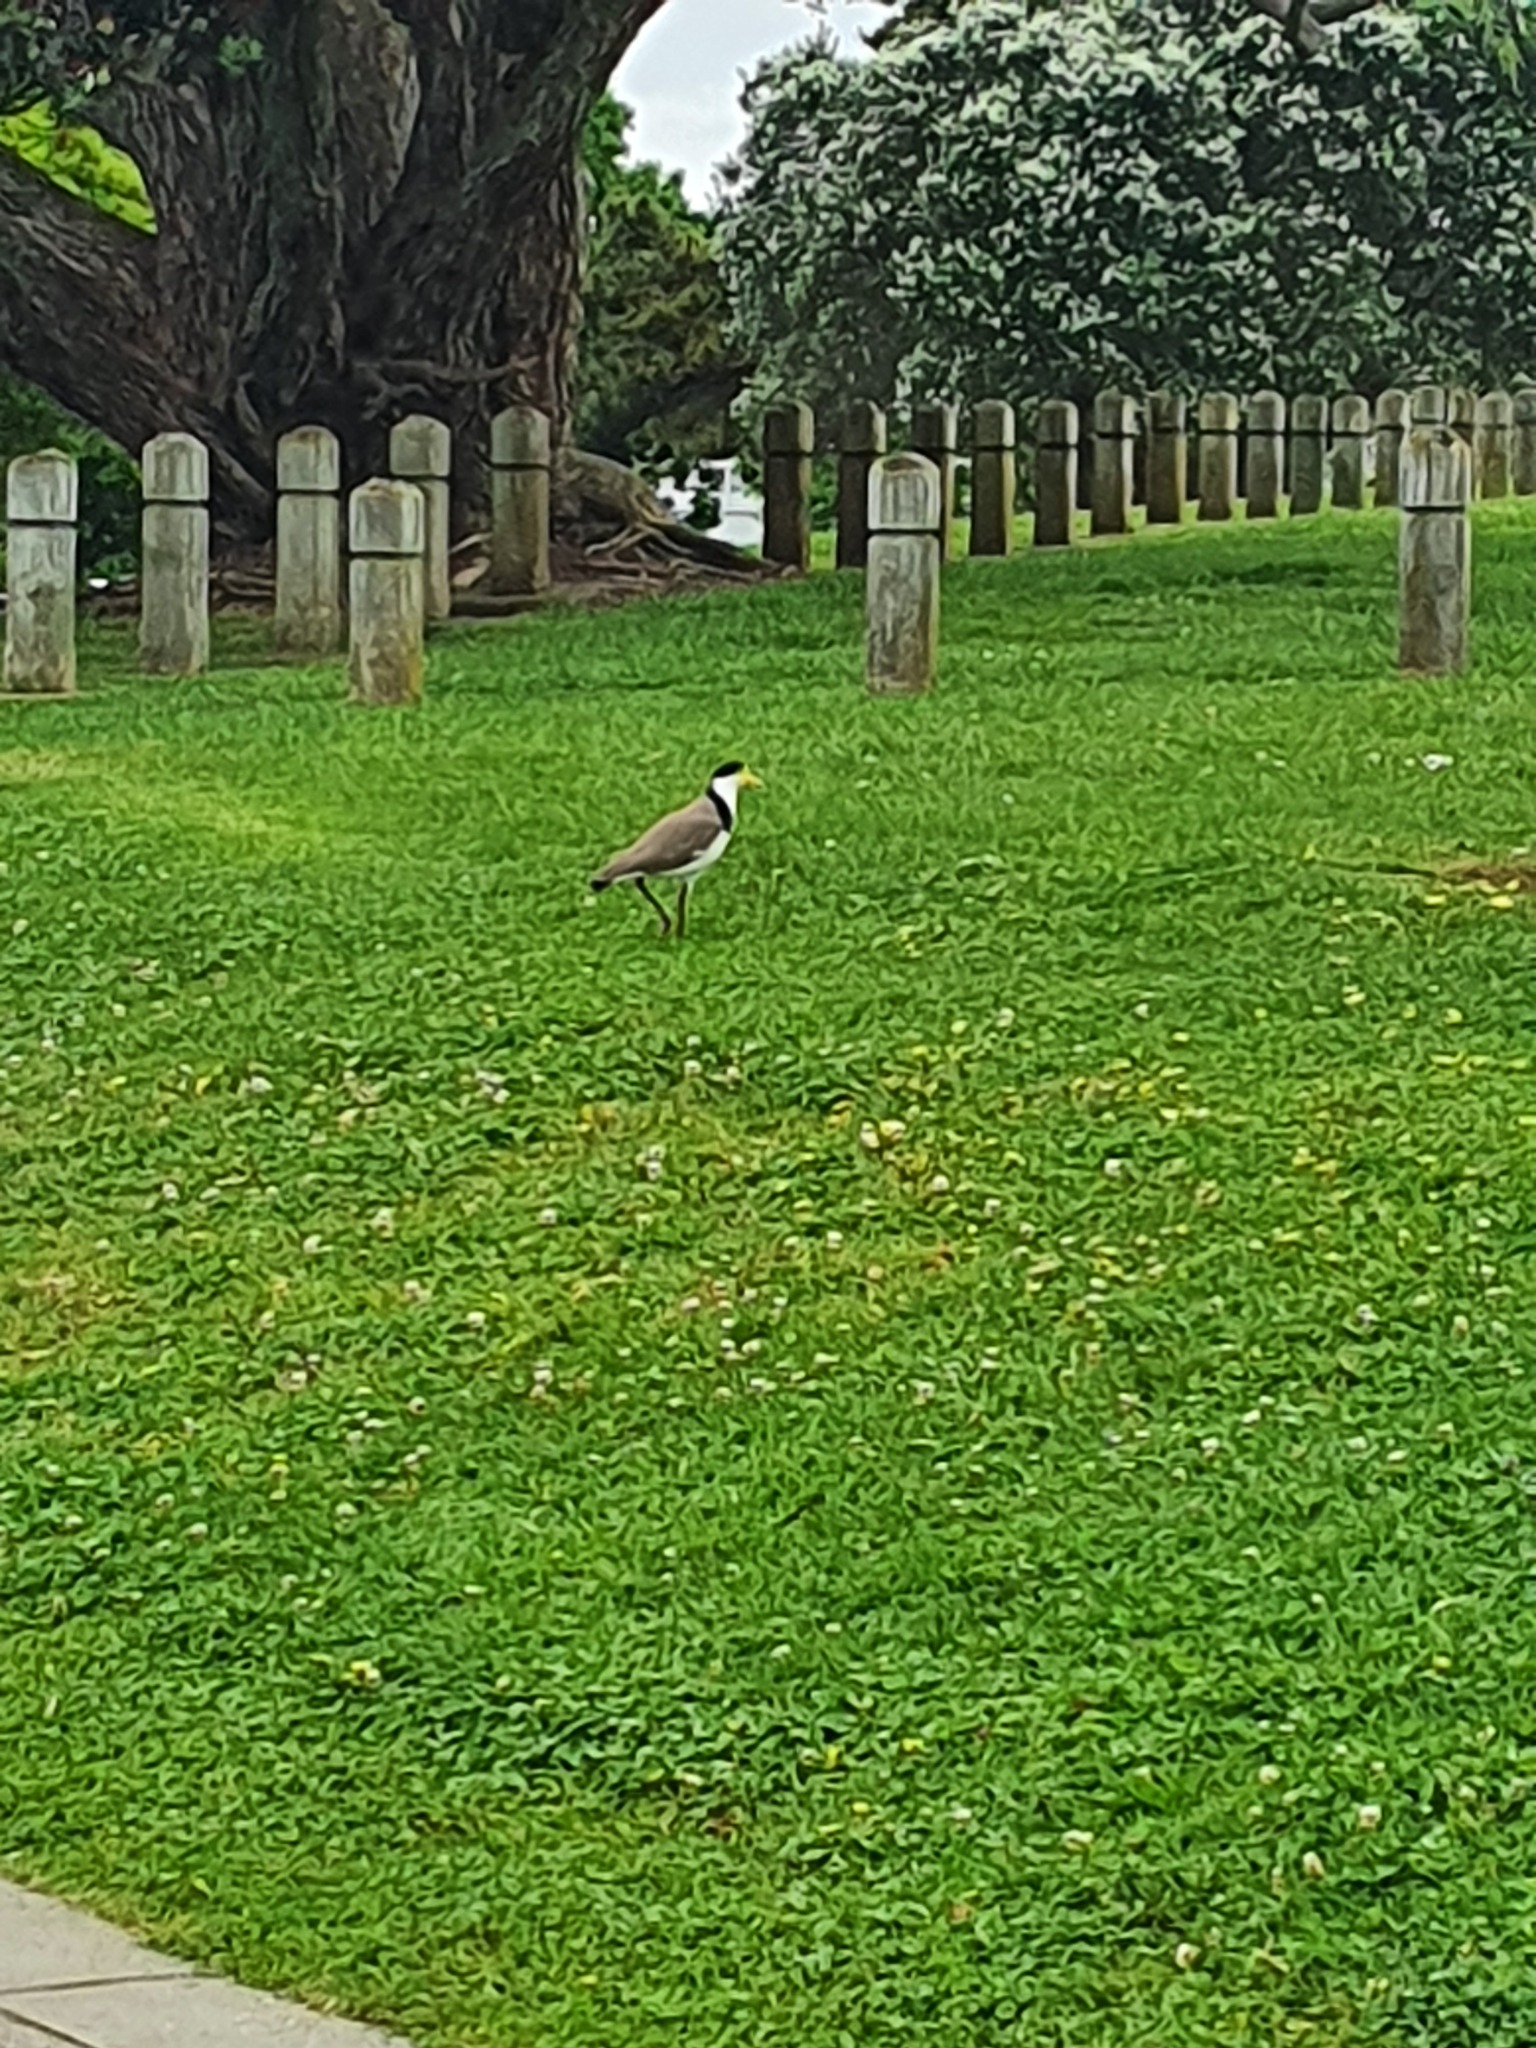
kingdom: Animalia
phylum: Chordata
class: Aves
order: Charadriiformes
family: Charadriidae
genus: Vanellus
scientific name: Vanellus miles
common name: Masked lapwing
